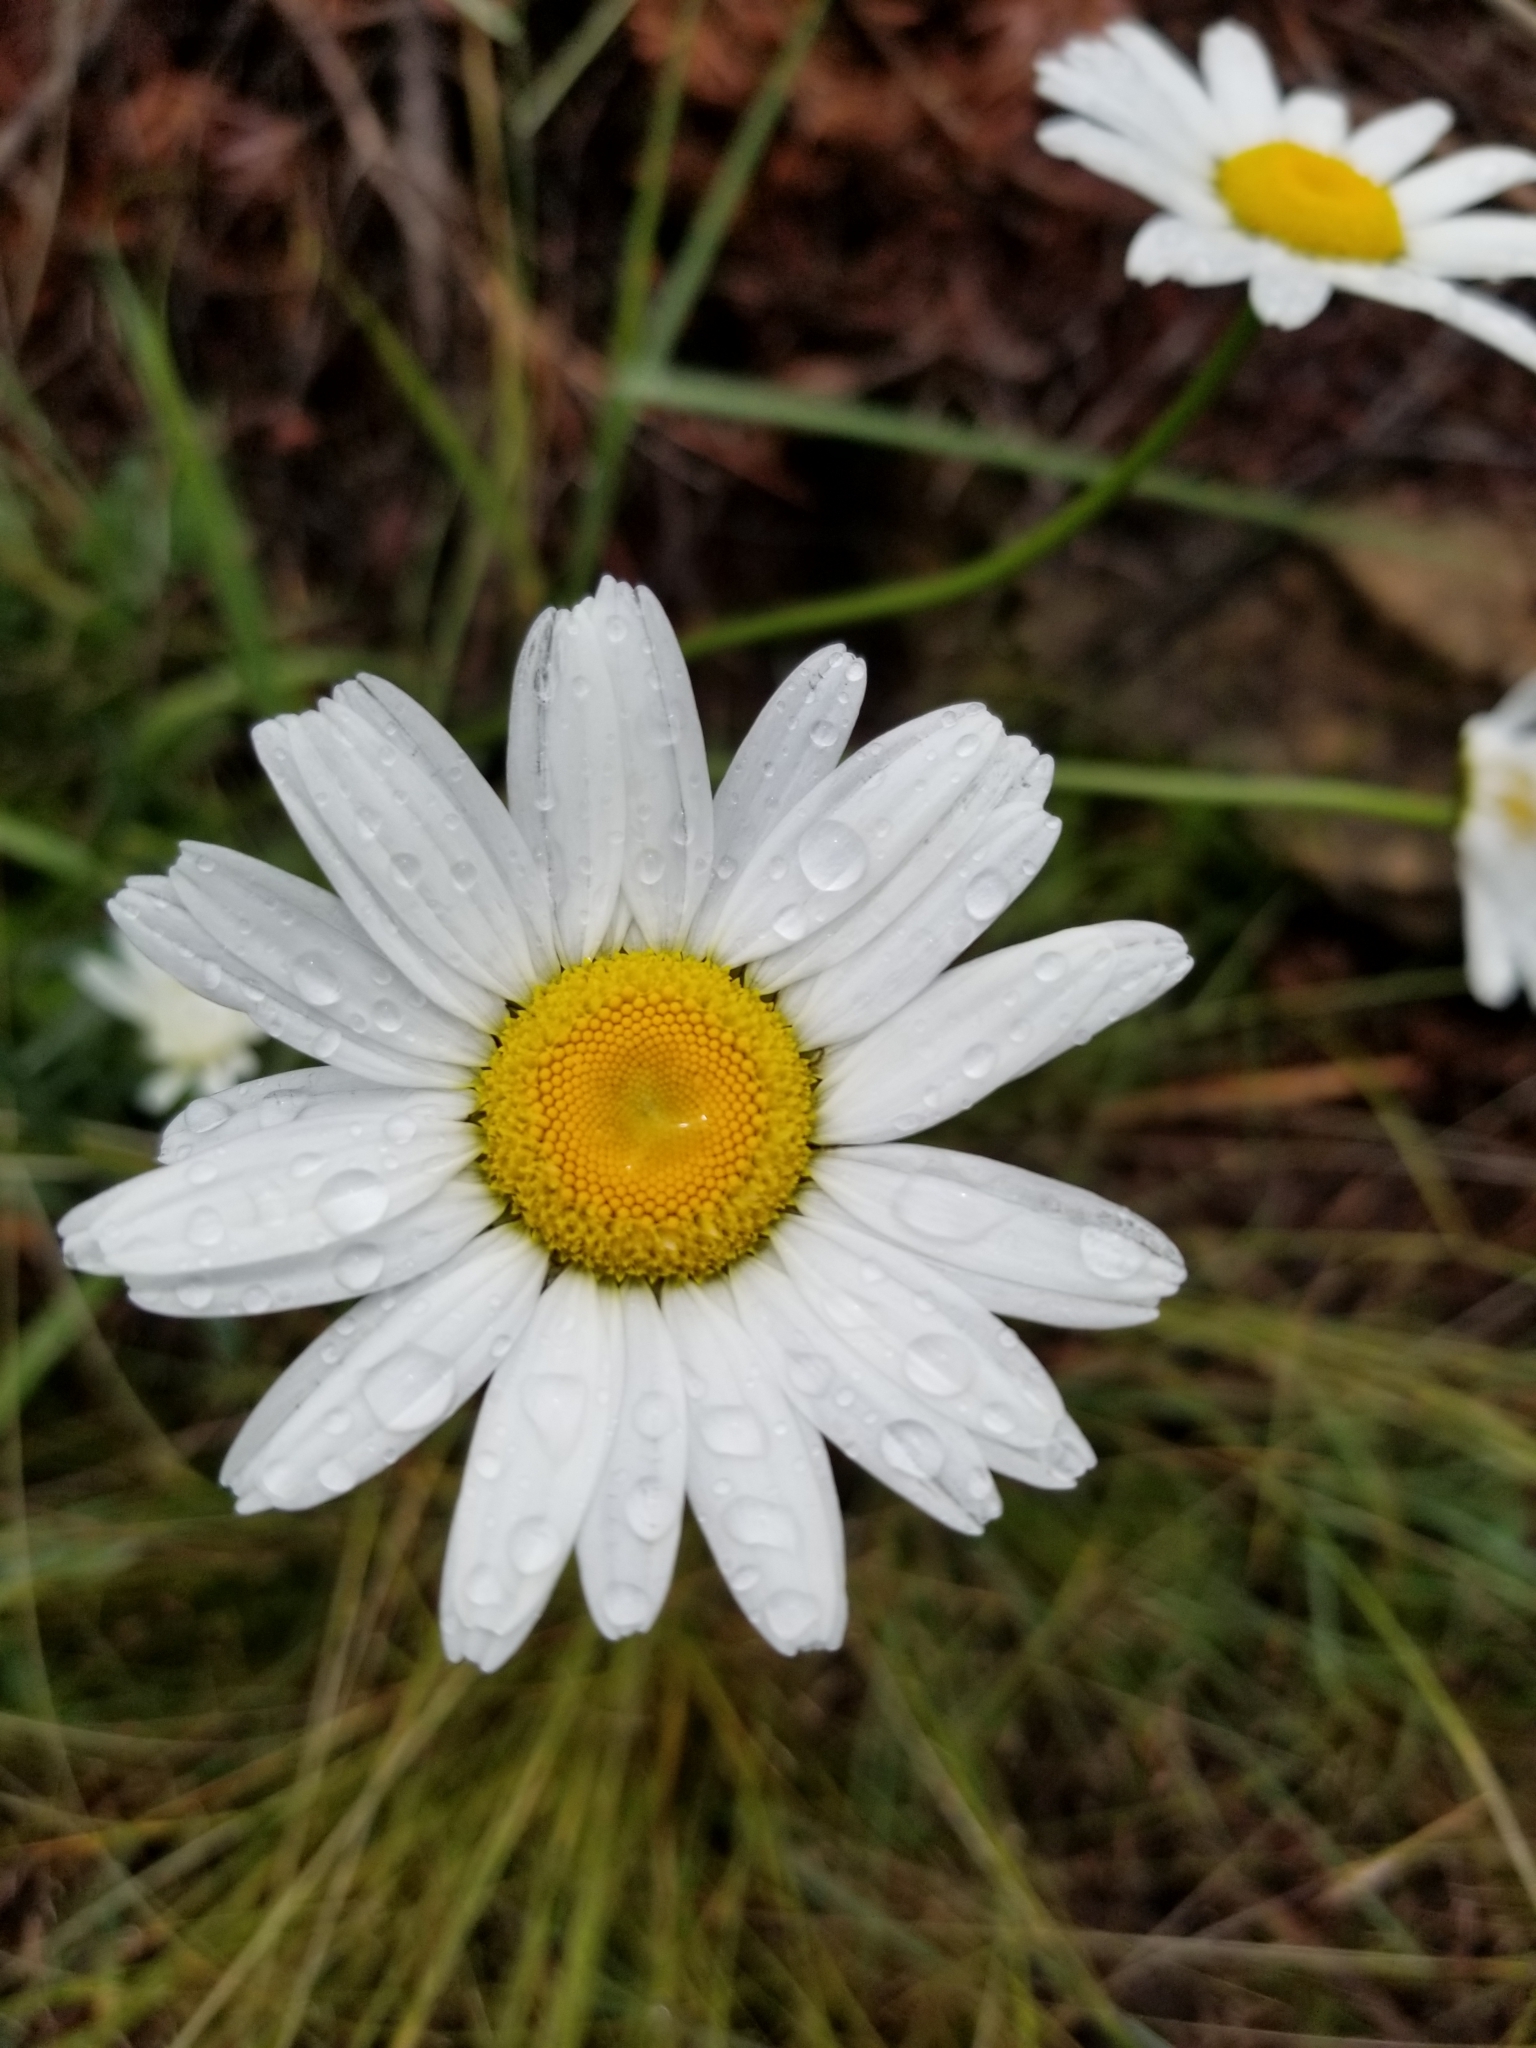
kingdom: Plantae
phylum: Tracheophyta
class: Magnoliopsida
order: Asterales
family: Asteraceae
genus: Leucanthemum
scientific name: Leucanthemum vulgare
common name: Oxeye daisy
